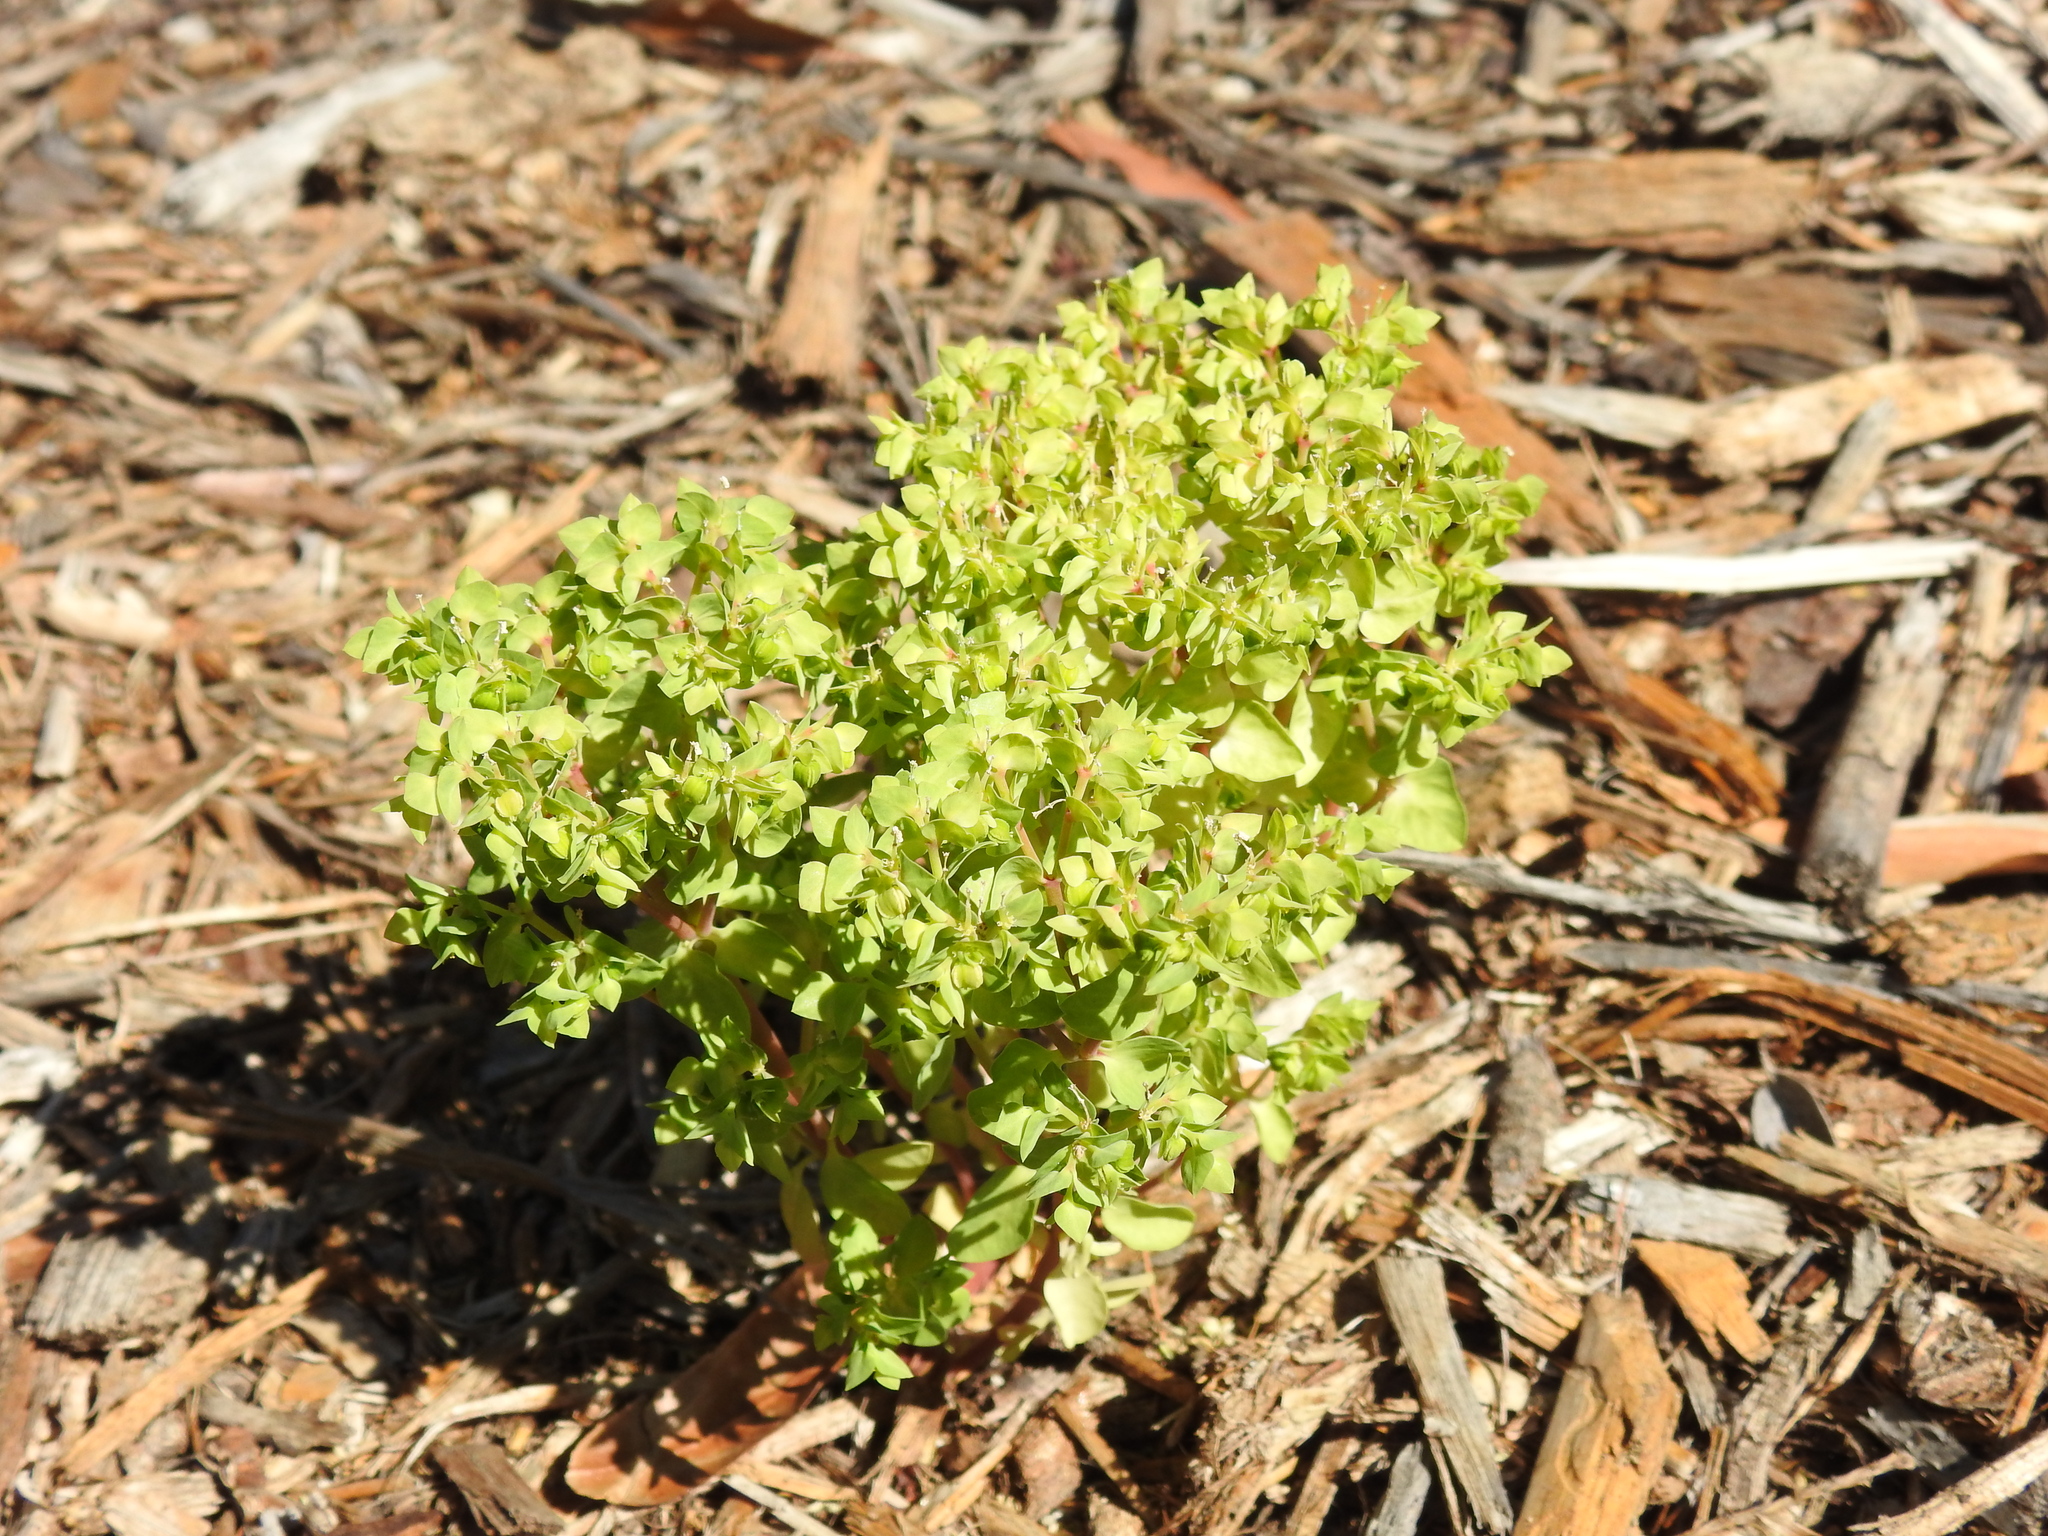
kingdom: Plantae
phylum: Tracheophyta
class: Magnoliopsida
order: Malpighiales
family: Euphorbiaceae
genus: Euphorbia
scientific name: Euphorbia peplus
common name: Petty spurge
